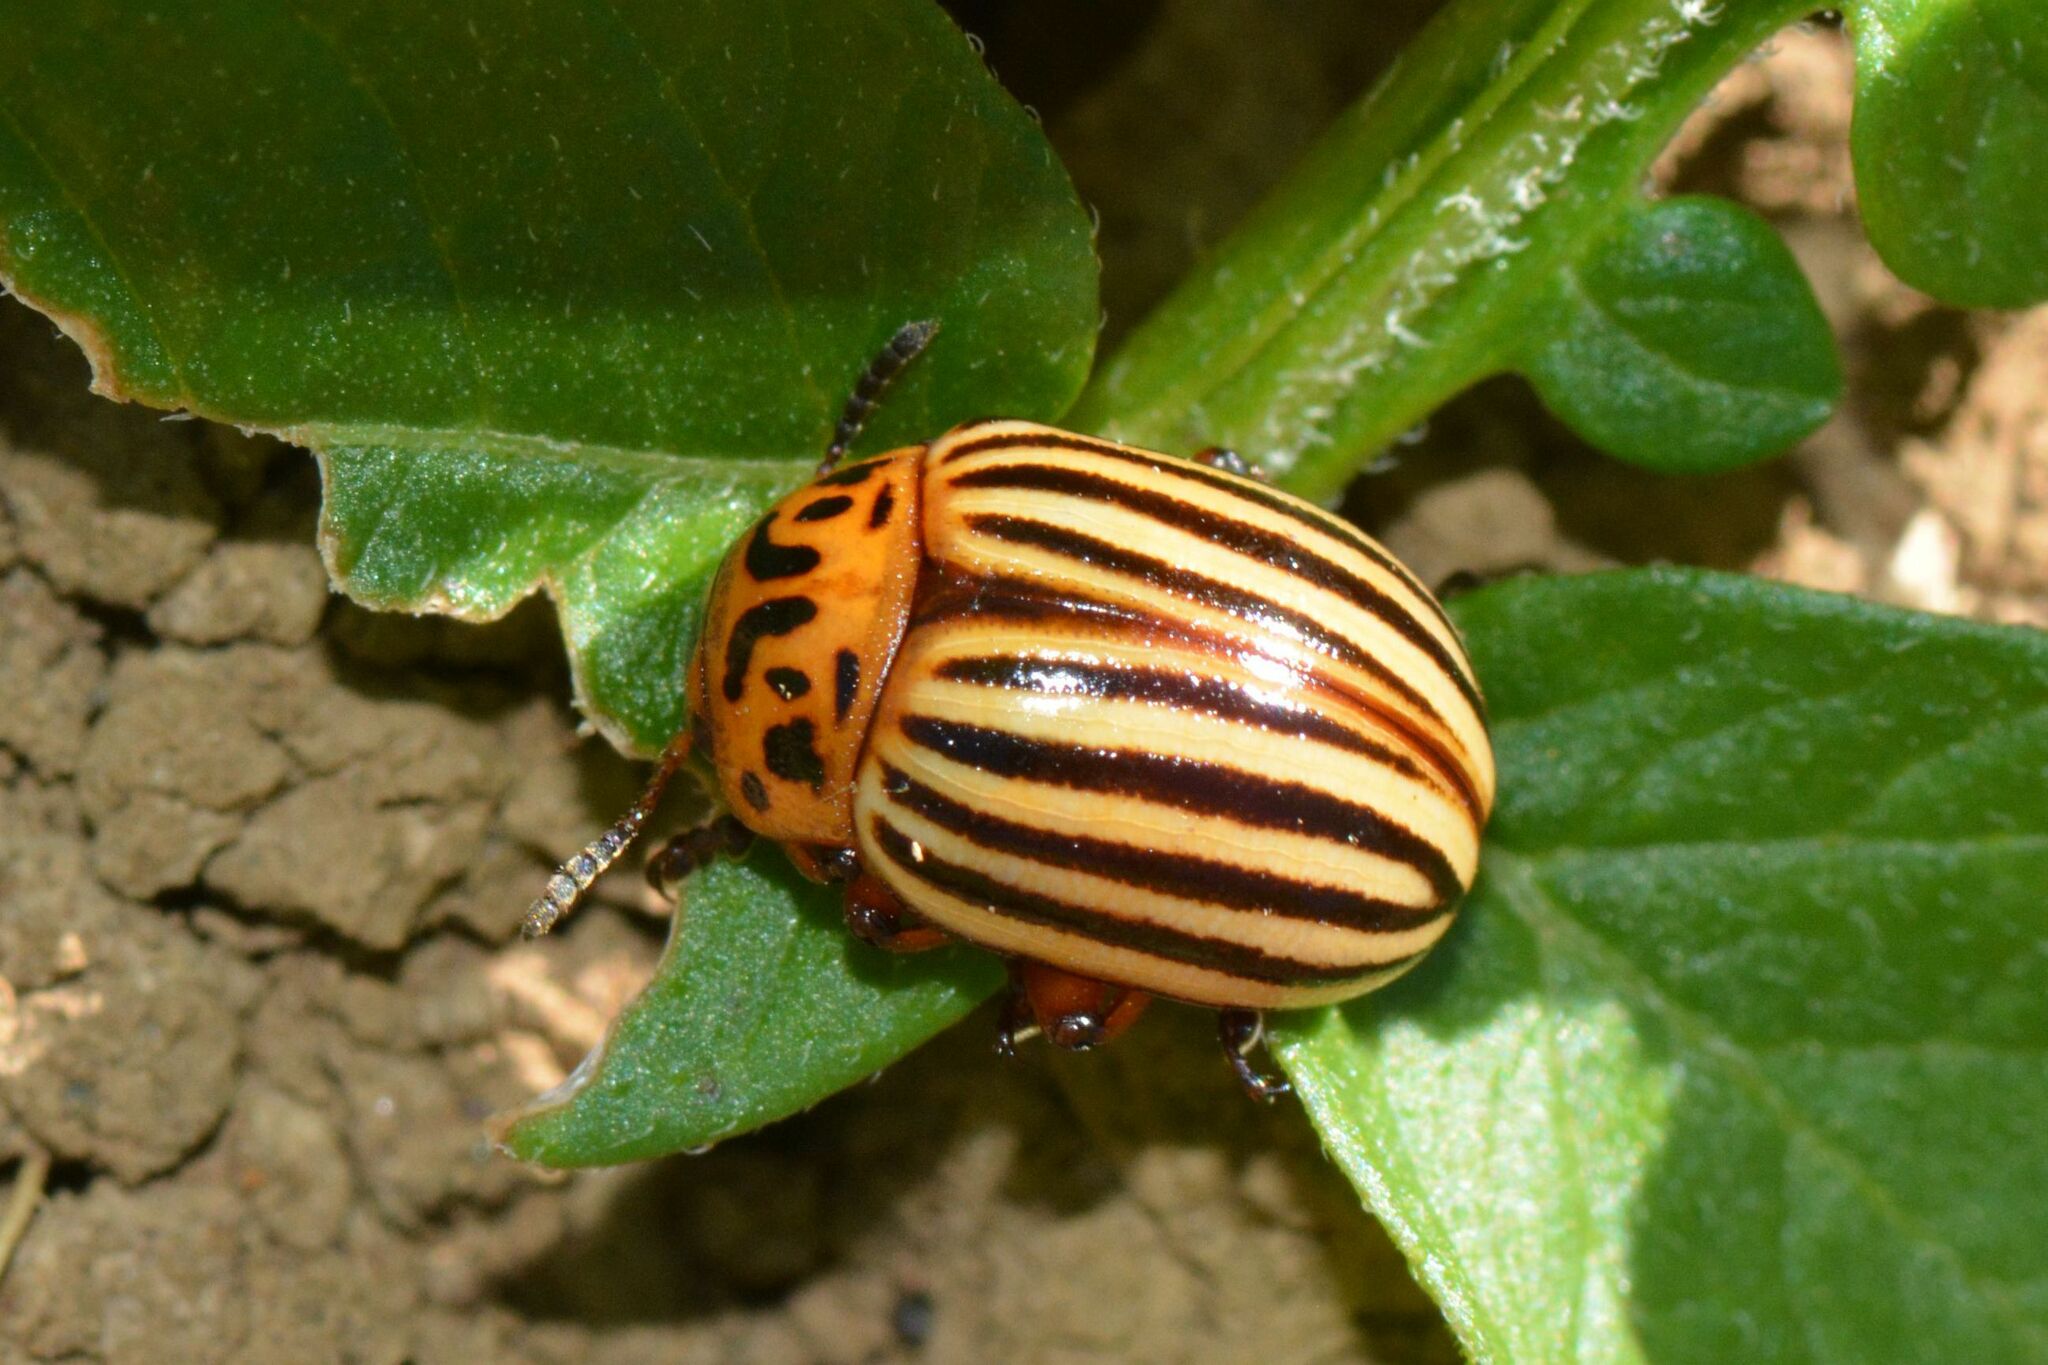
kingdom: Animalia
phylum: Arthropoda
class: Insecta
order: Coleoptera
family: Chrysomelidae
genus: Leptinotarsa
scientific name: Leptinotarsa decemlineata
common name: Colorado potato beetle
